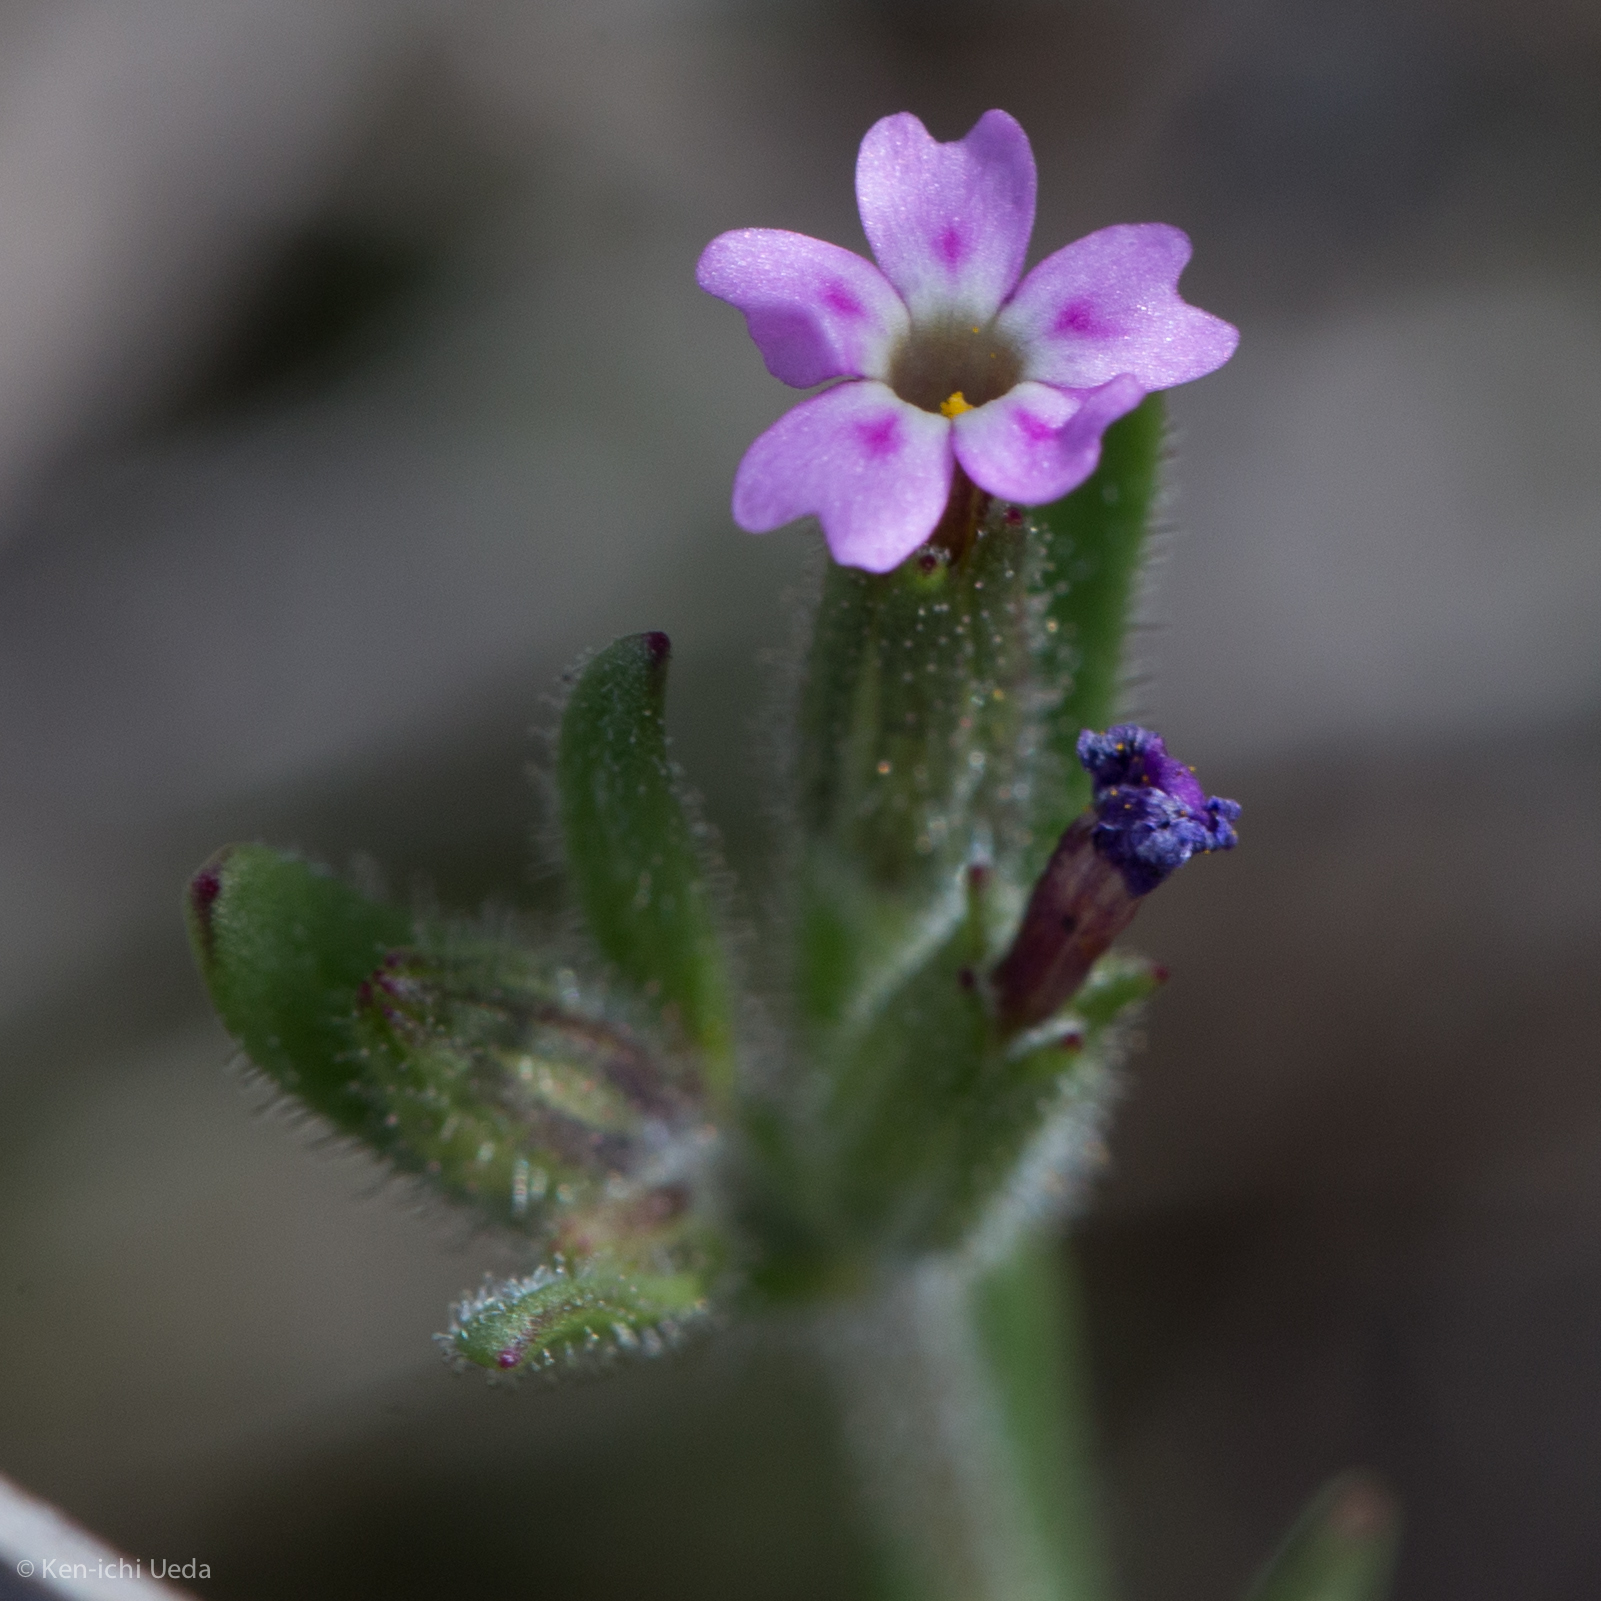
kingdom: Plantae
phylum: Tracheophyta
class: Magnoliopsida
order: Ericales
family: Polemoniaceae
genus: Phlox
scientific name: Phlox gracilis
